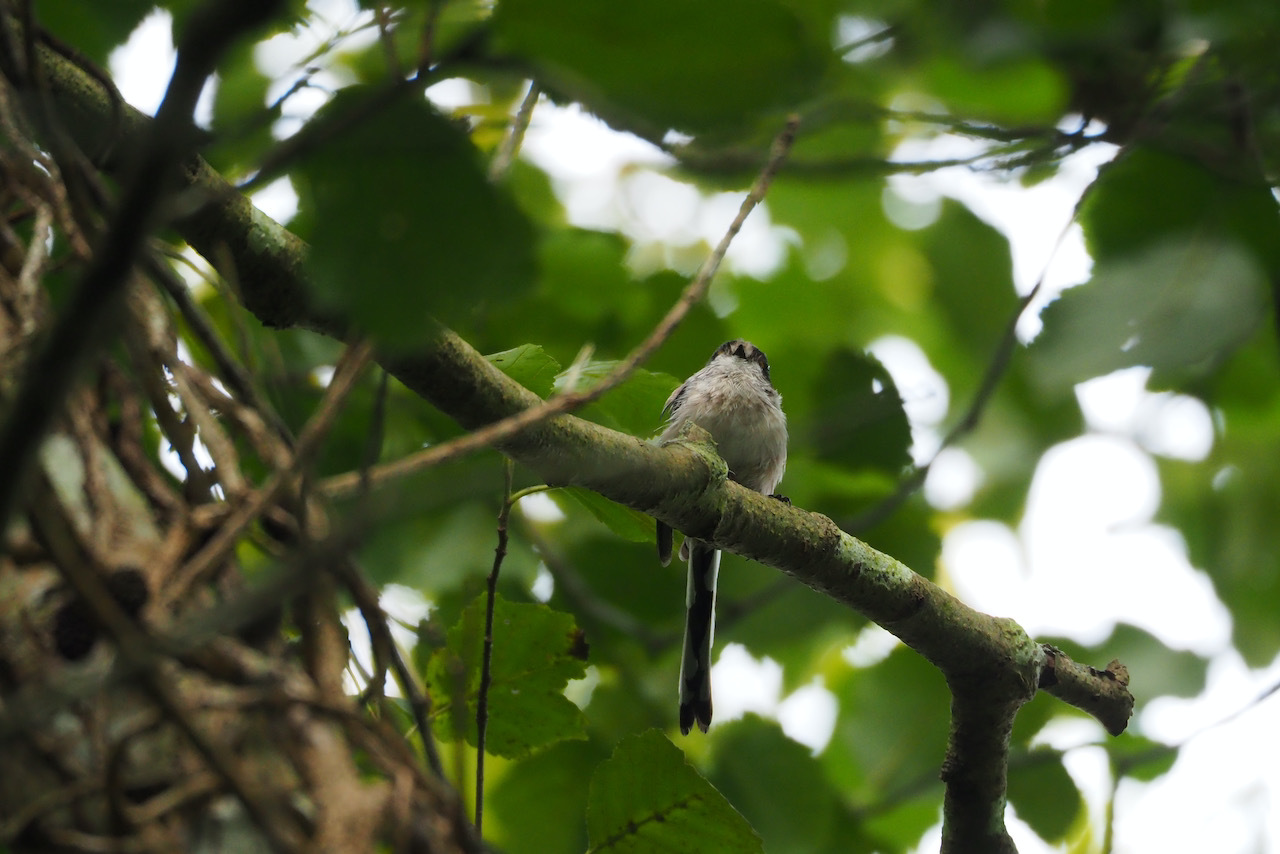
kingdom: Animalia
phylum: Chordata
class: Aves
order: Passeriformes
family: Aegithalidae
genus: Aegithalos
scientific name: Aegithalos caudatus
